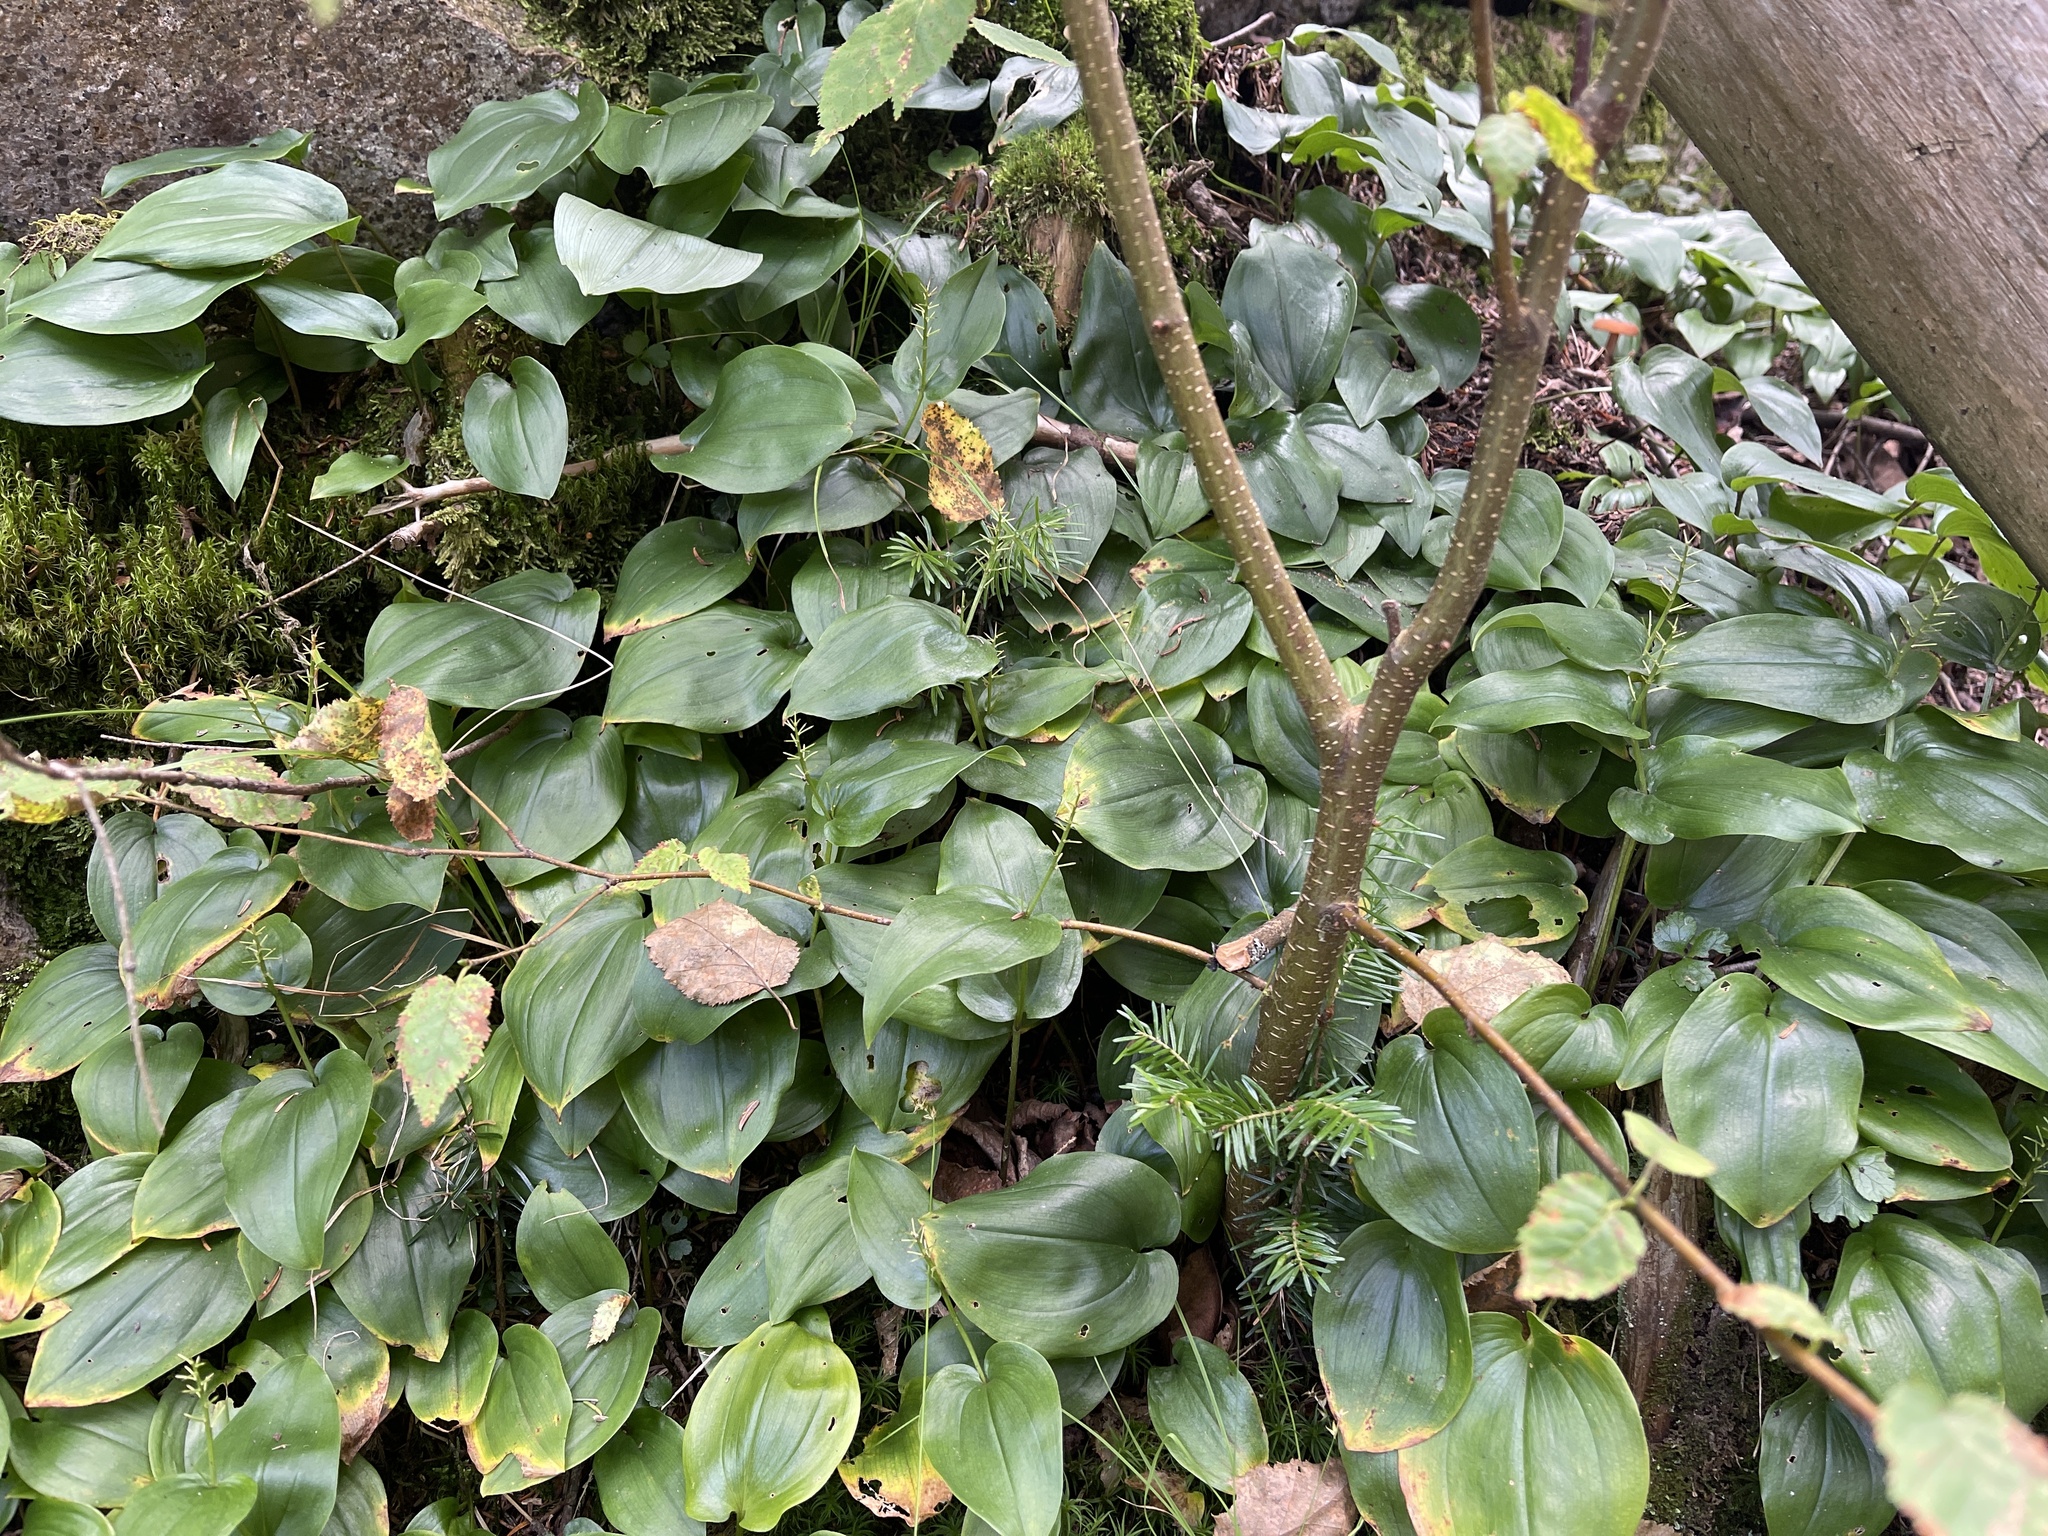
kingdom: Plantae
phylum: Tracheophyta
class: Liliopsida
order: Asparagales
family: Asparagaceae
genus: Maianthemum
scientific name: Maianthemum canadense
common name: False lily-of-the-valley
